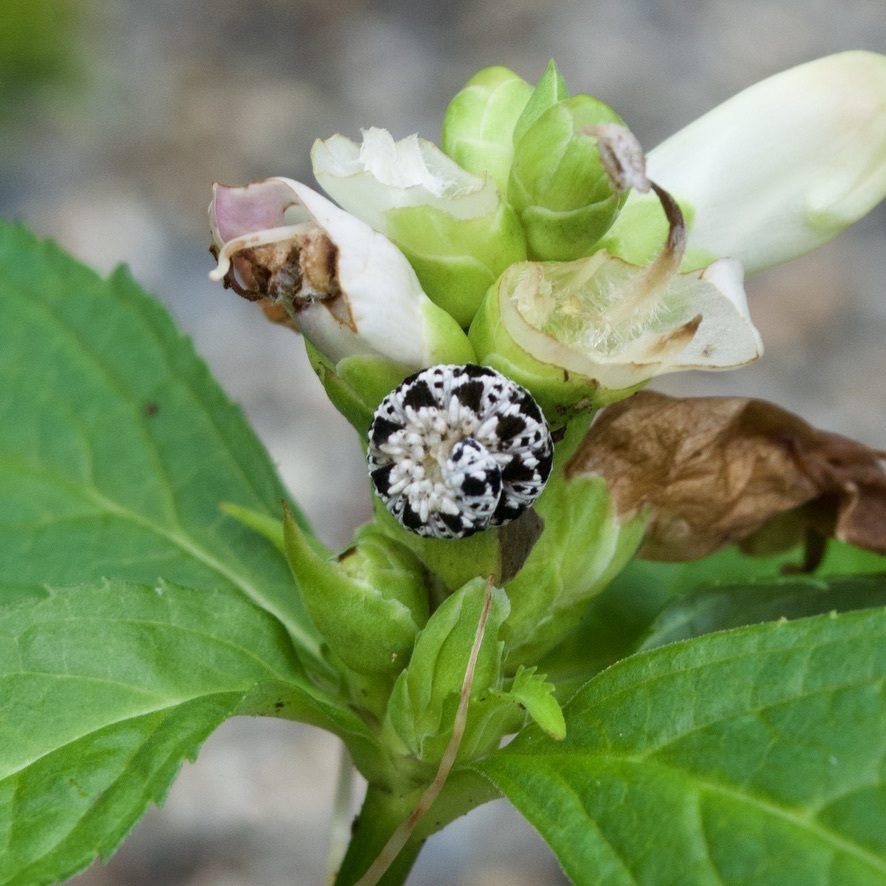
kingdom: Animalia
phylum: Arthropoda
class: Insecta
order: Hymenoptera
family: Tenthredinidae
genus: Tenthredo
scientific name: Tenthredo
